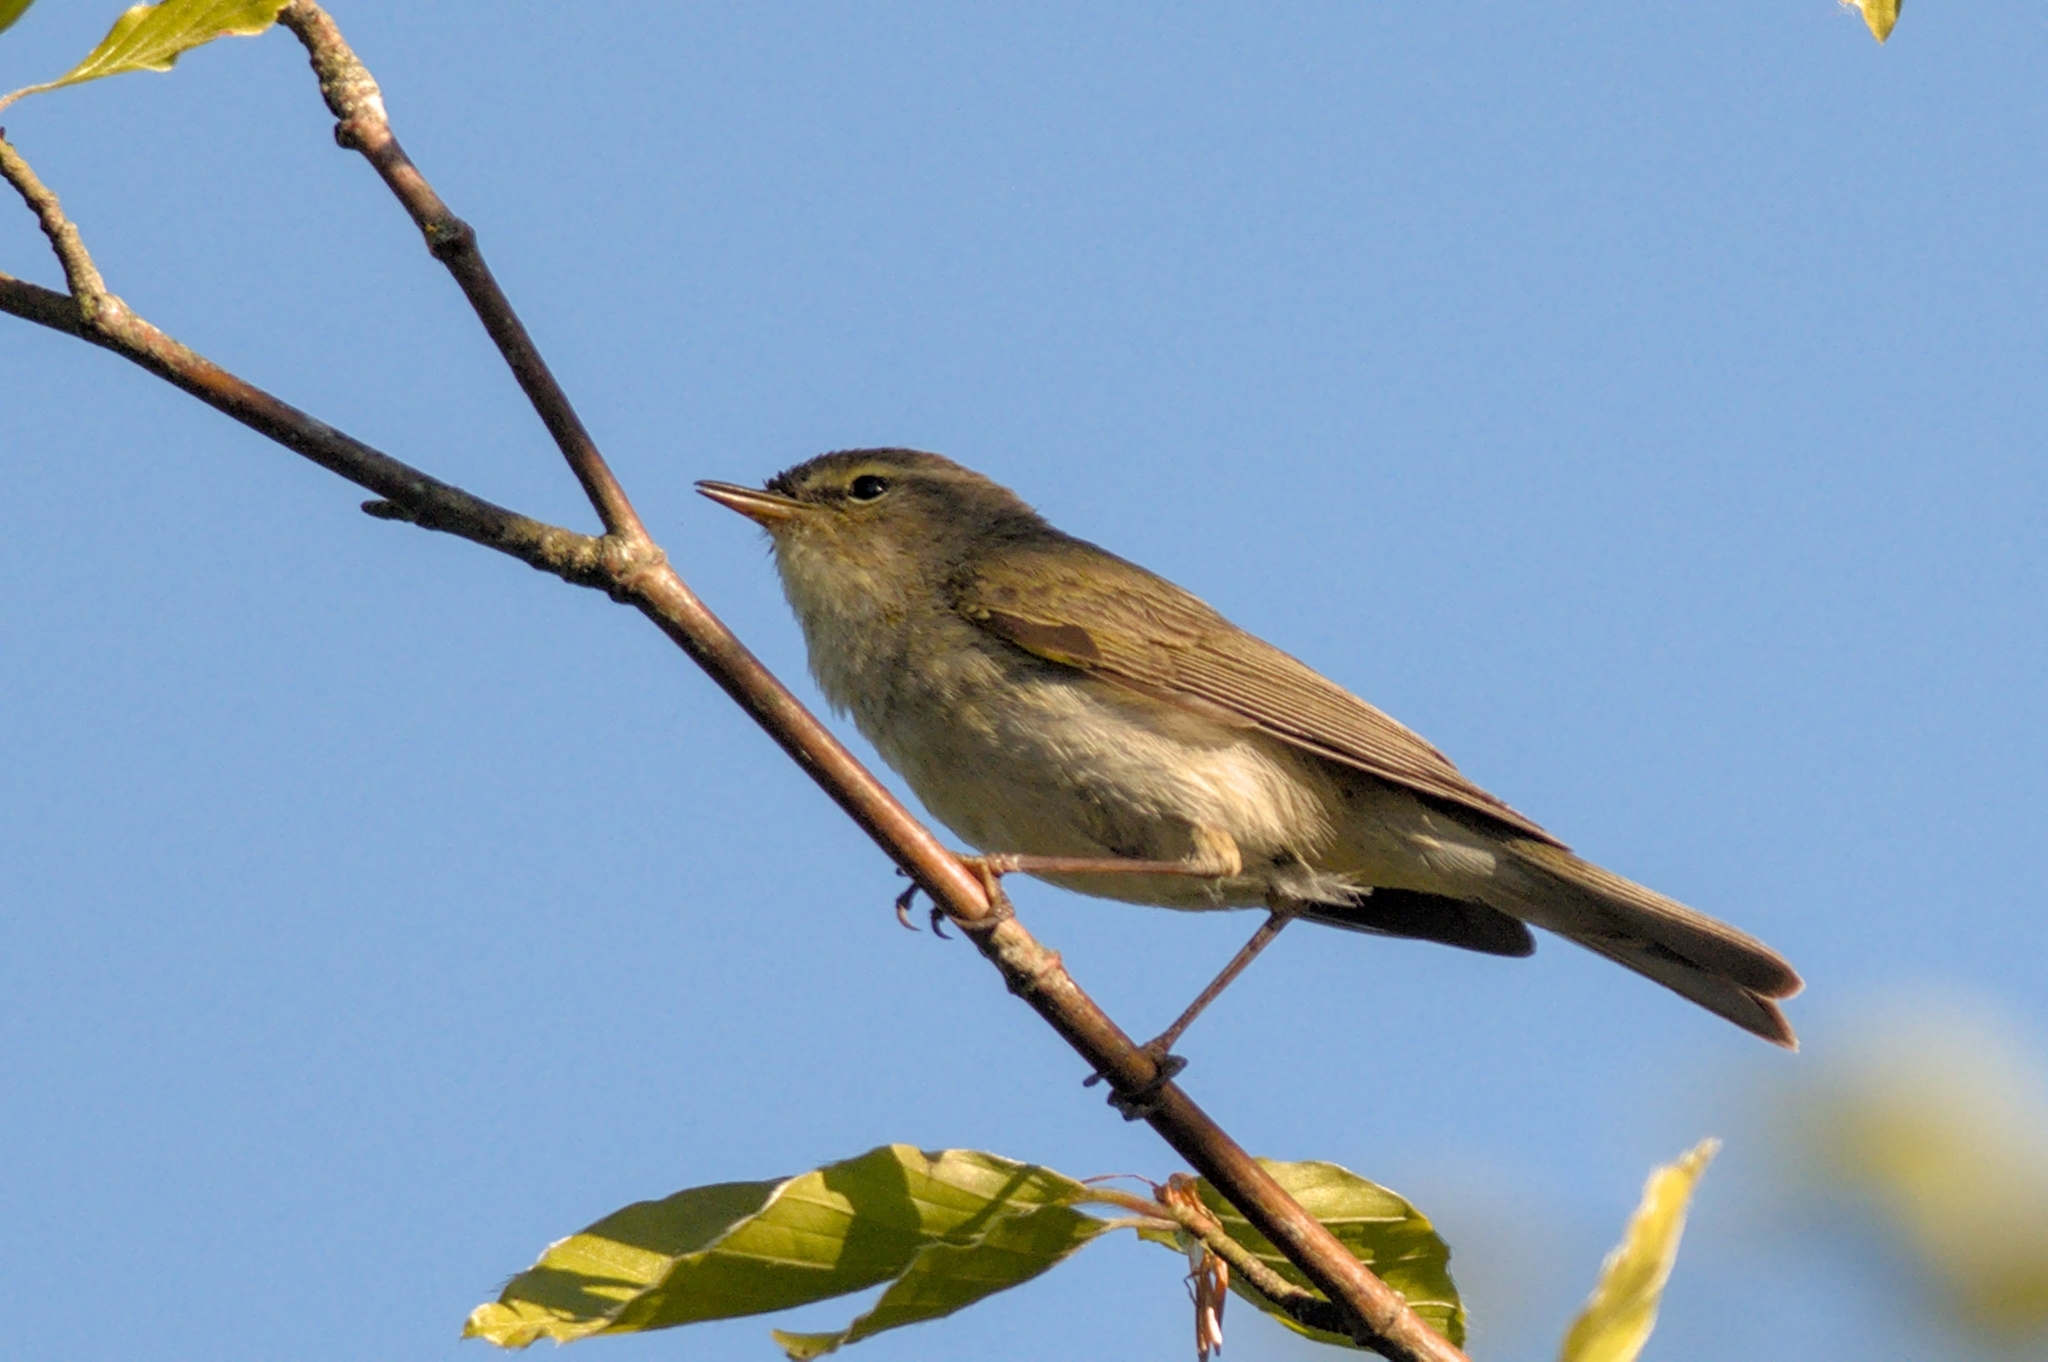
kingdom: Animalia
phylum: Chordata
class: Aves
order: Passeriformes
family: Phylloscopidae
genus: Phylloscopus
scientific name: Phylloscopus trochilus
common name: Willow warbler
